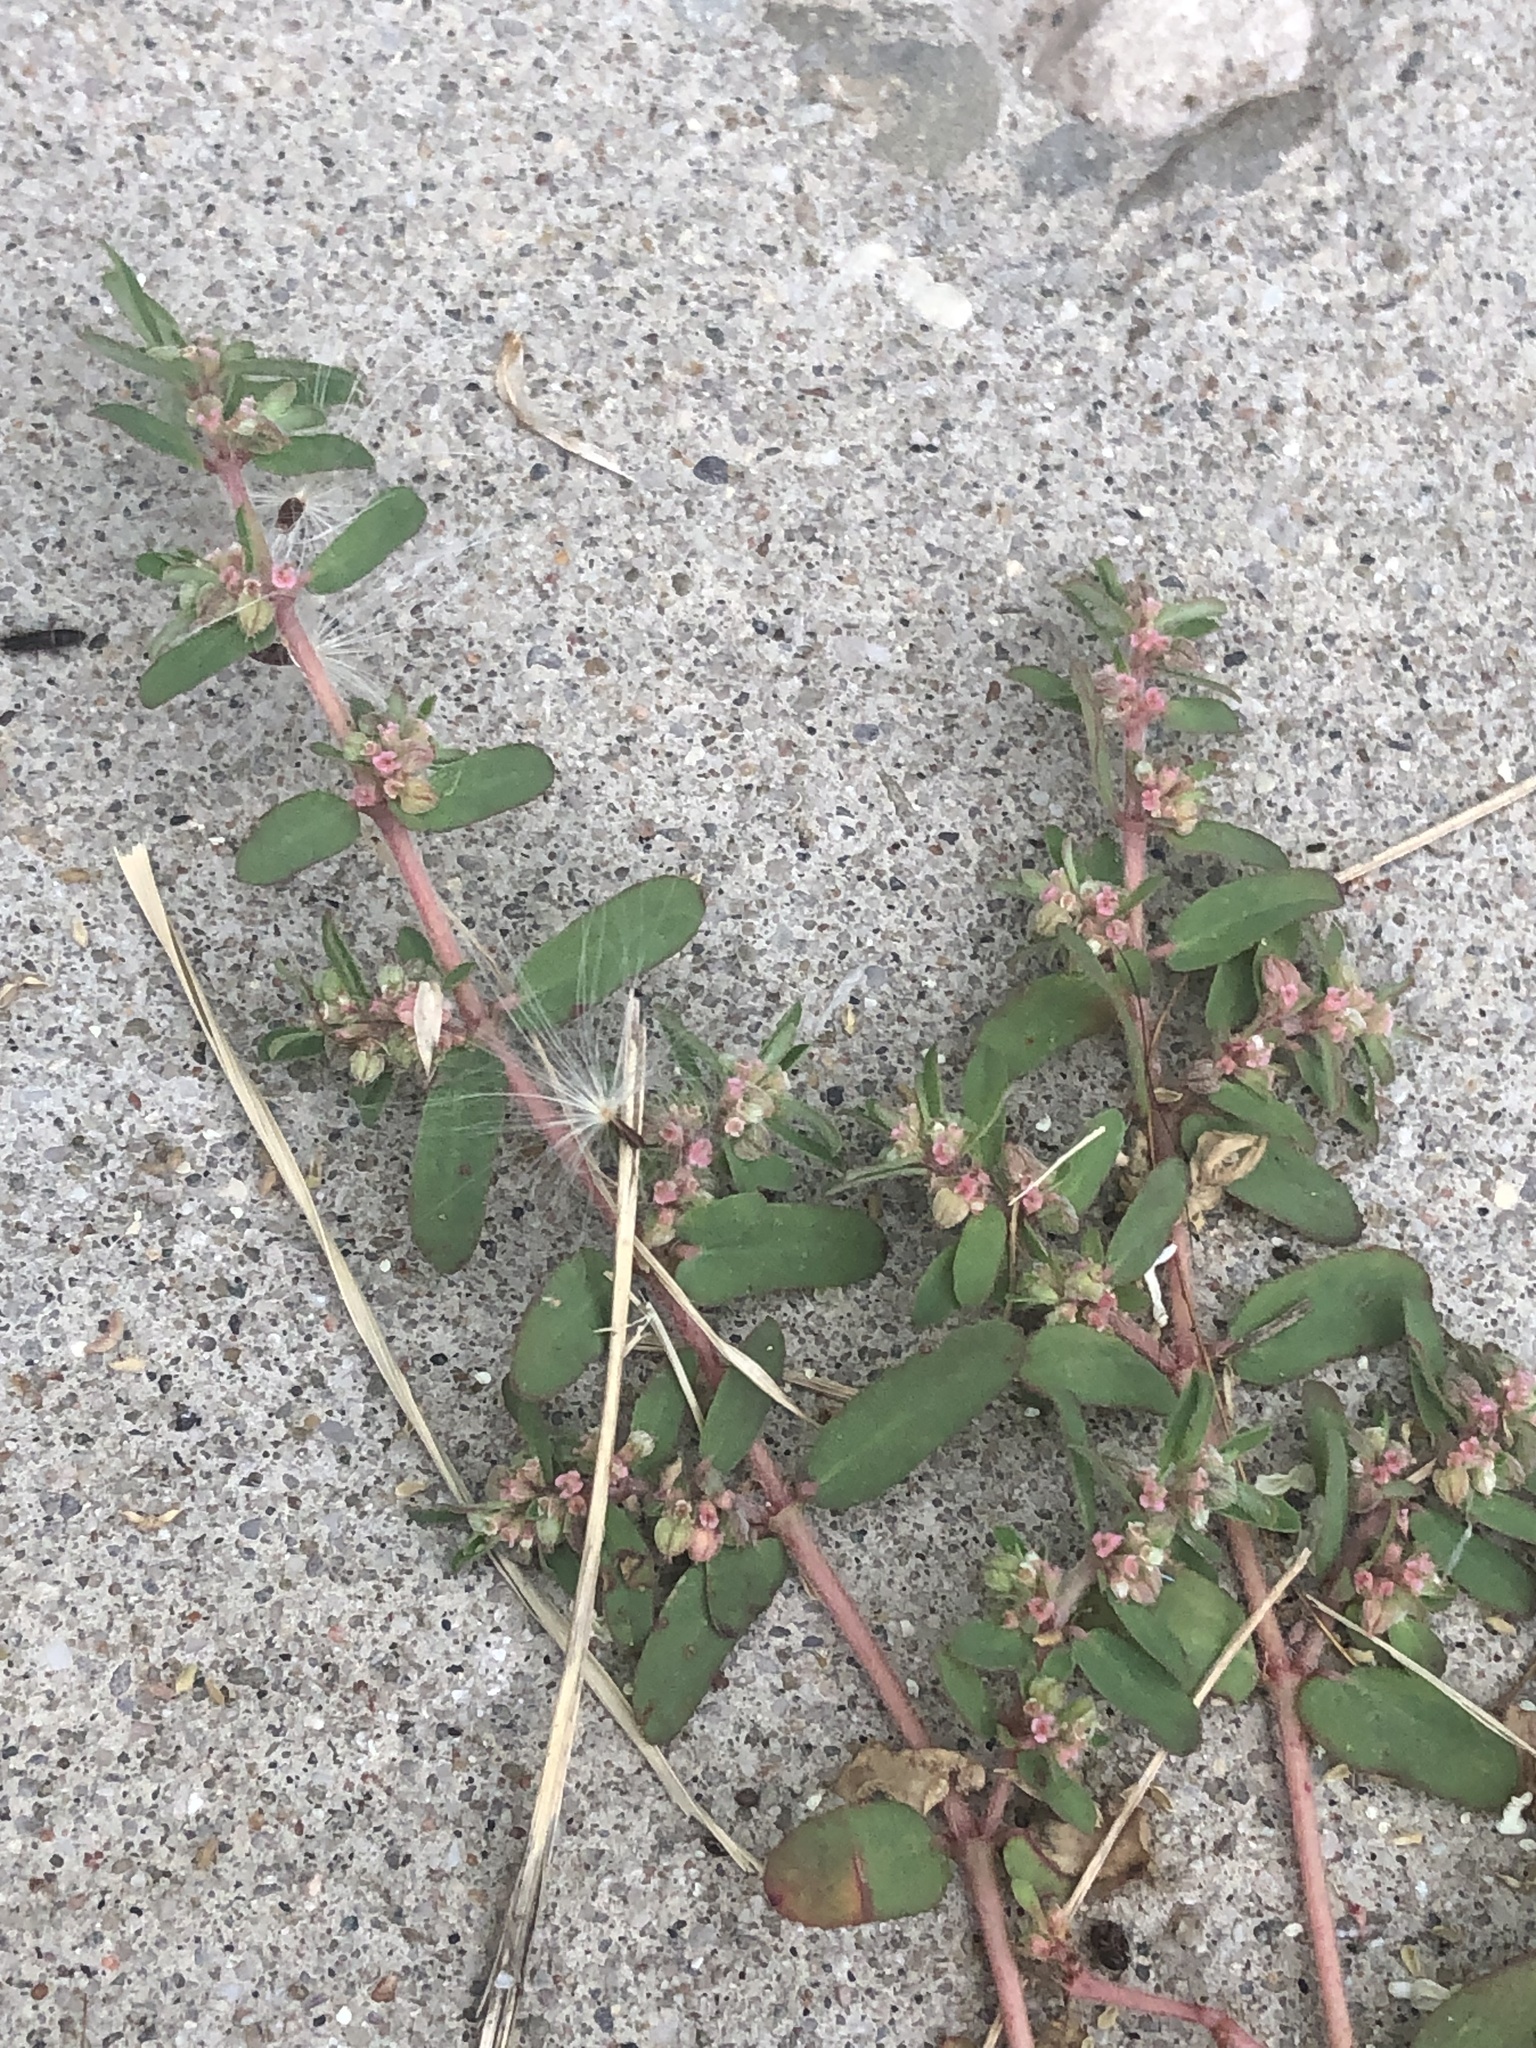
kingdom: Plantae
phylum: Tracheophyta
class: Magnoliopsida
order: Malpighiales
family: Euphorbiaceae
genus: Euphorbia
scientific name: Euphorbia maculata
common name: Spotted spurge
